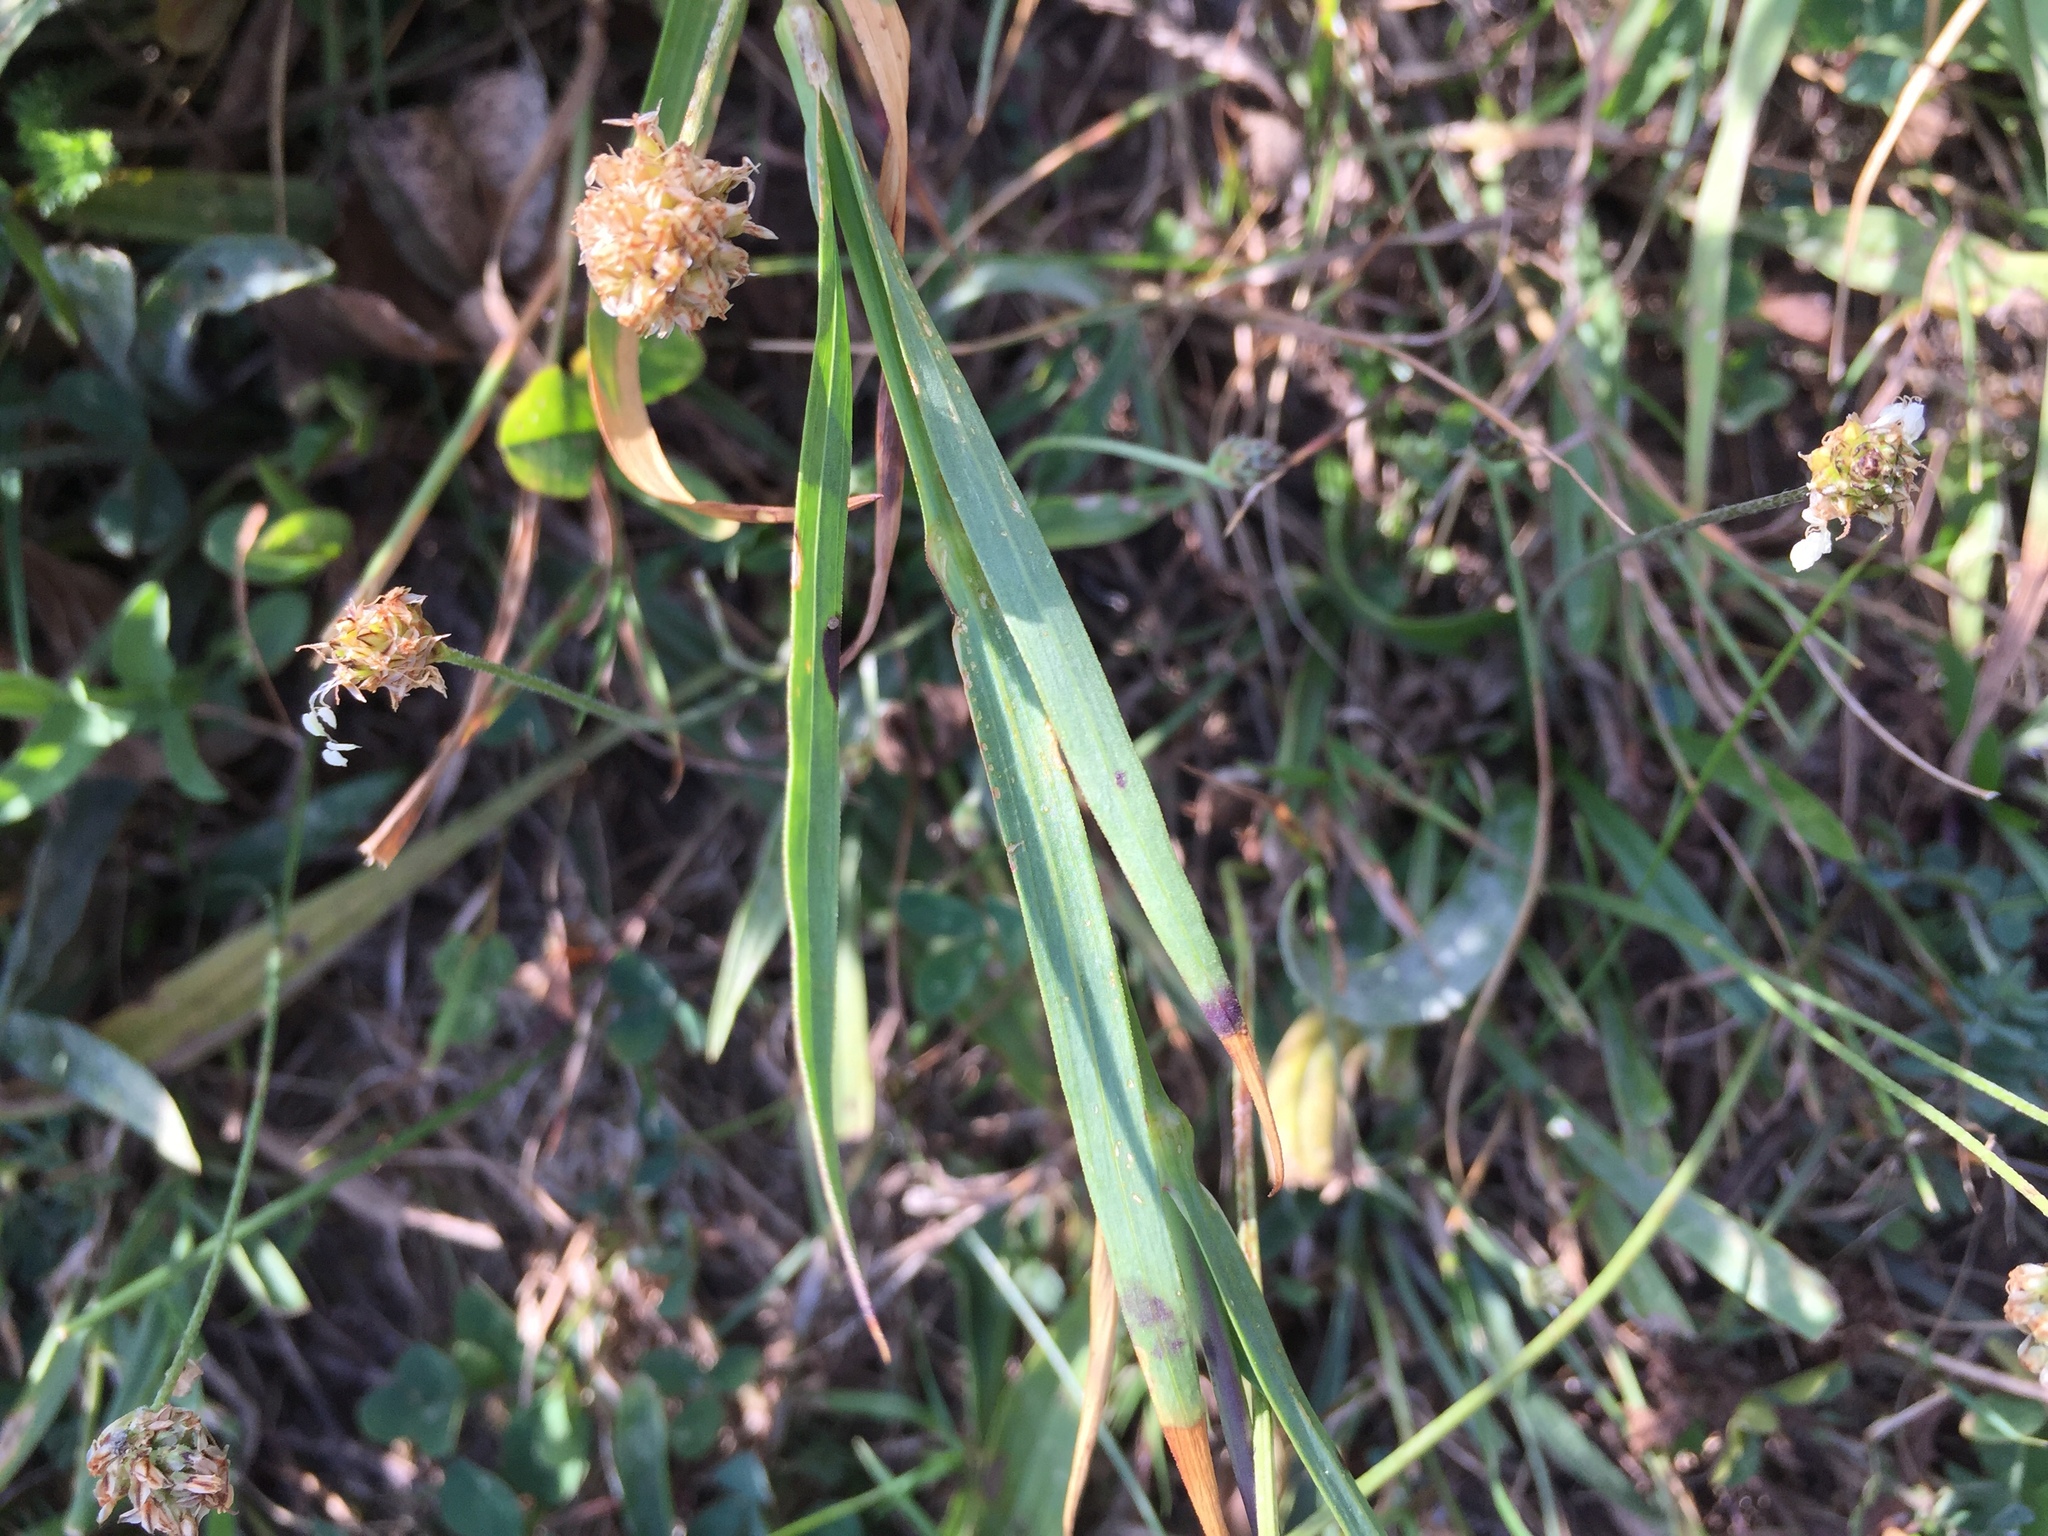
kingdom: Plantae
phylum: Tracheophyta
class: Magnoliopsida
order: Caryophyllales
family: Caryophyllaceae
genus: Dianthus
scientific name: Dianthus carthusianorum
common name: Carthusian pink
